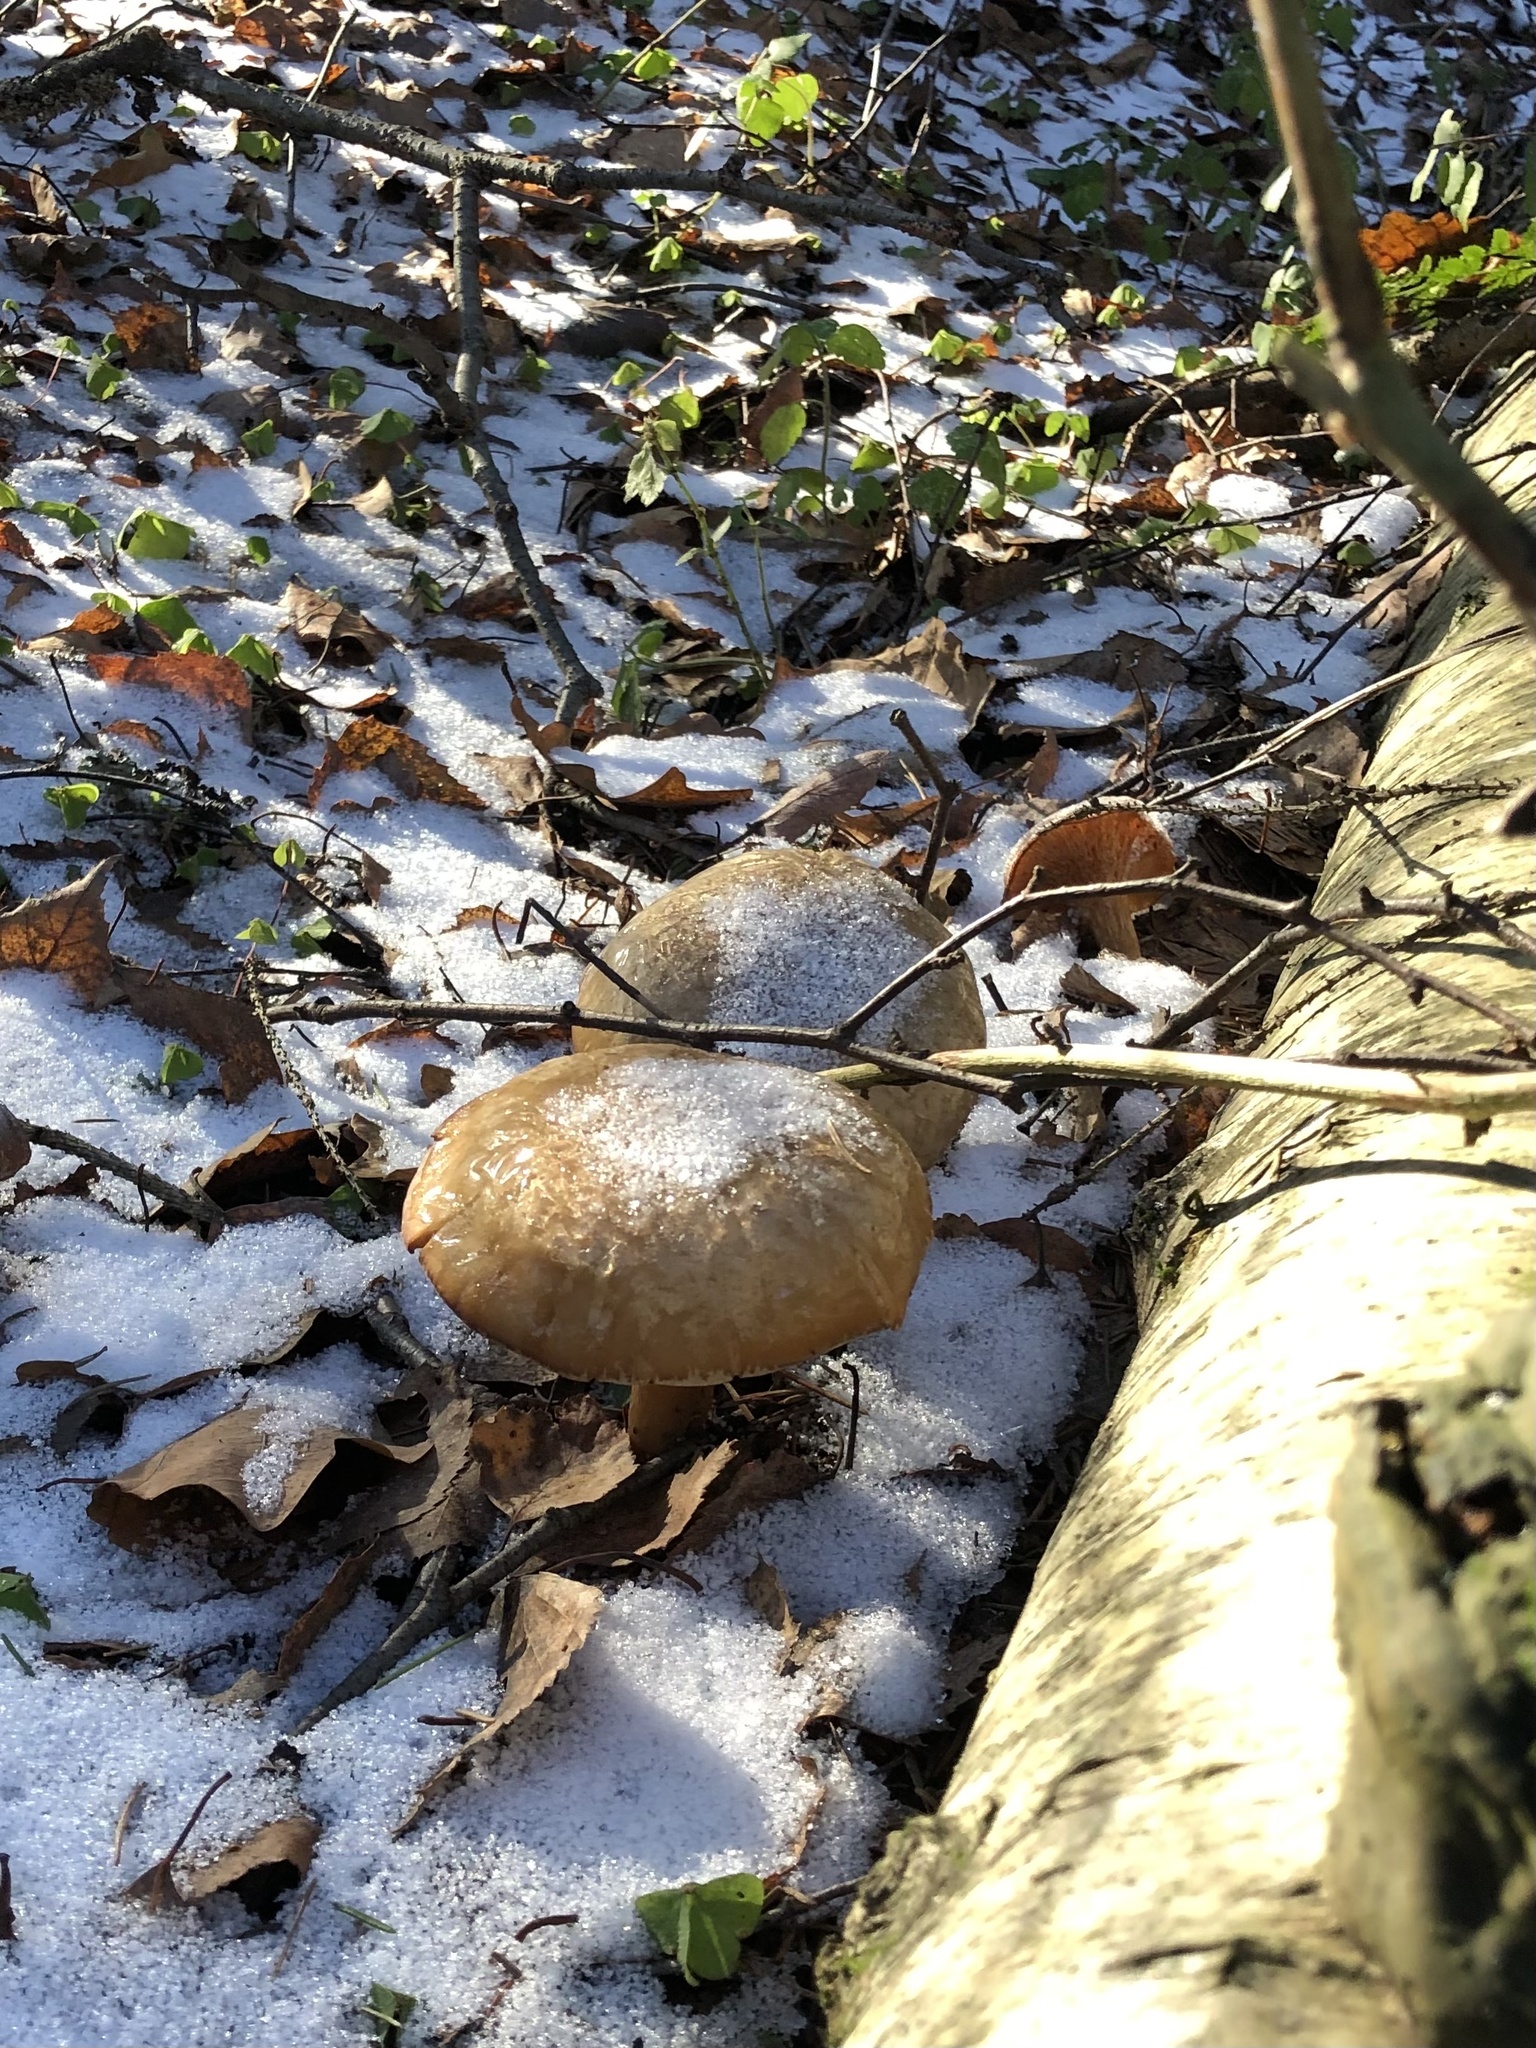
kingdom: Fungi
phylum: Basidiomycota
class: Agaricomycetes
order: Agaricales
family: Hygrophoraceae
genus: Ampulloclitocybe
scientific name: Ampulloclitocybe clavipes
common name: Club foot
